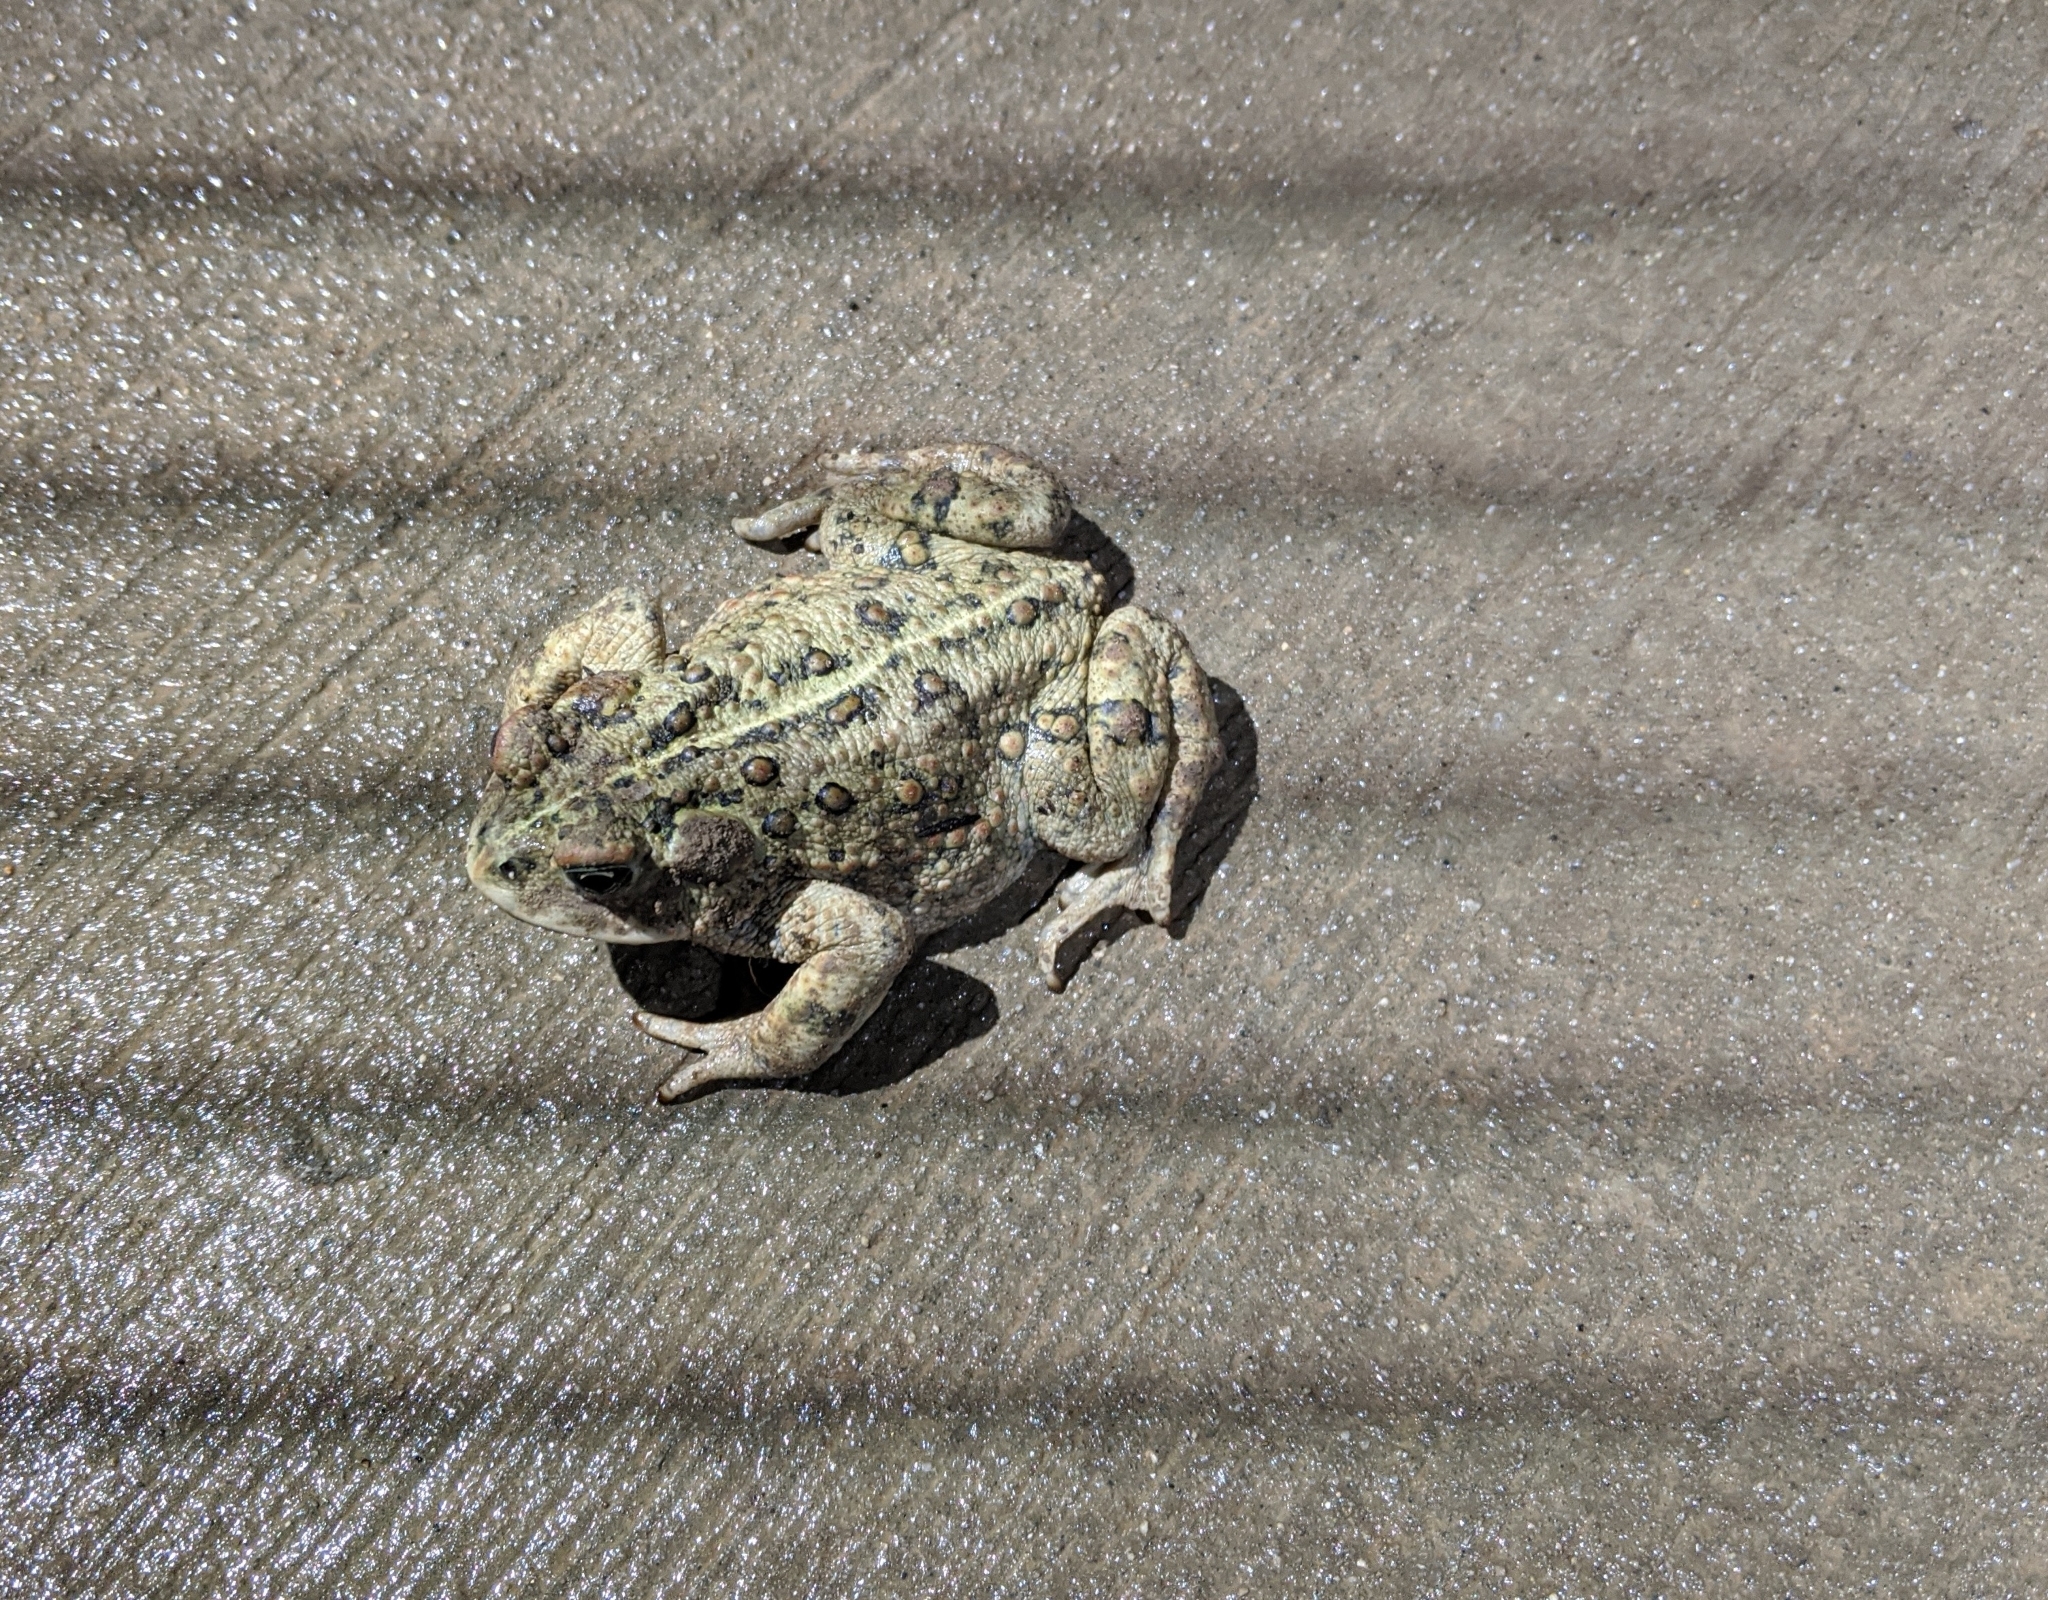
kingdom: Animalia
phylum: Chordata
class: Amphibia
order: Anura
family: Bufonidae
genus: Anaxyrus
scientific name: Anaxyrus boreas
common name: Western toad
